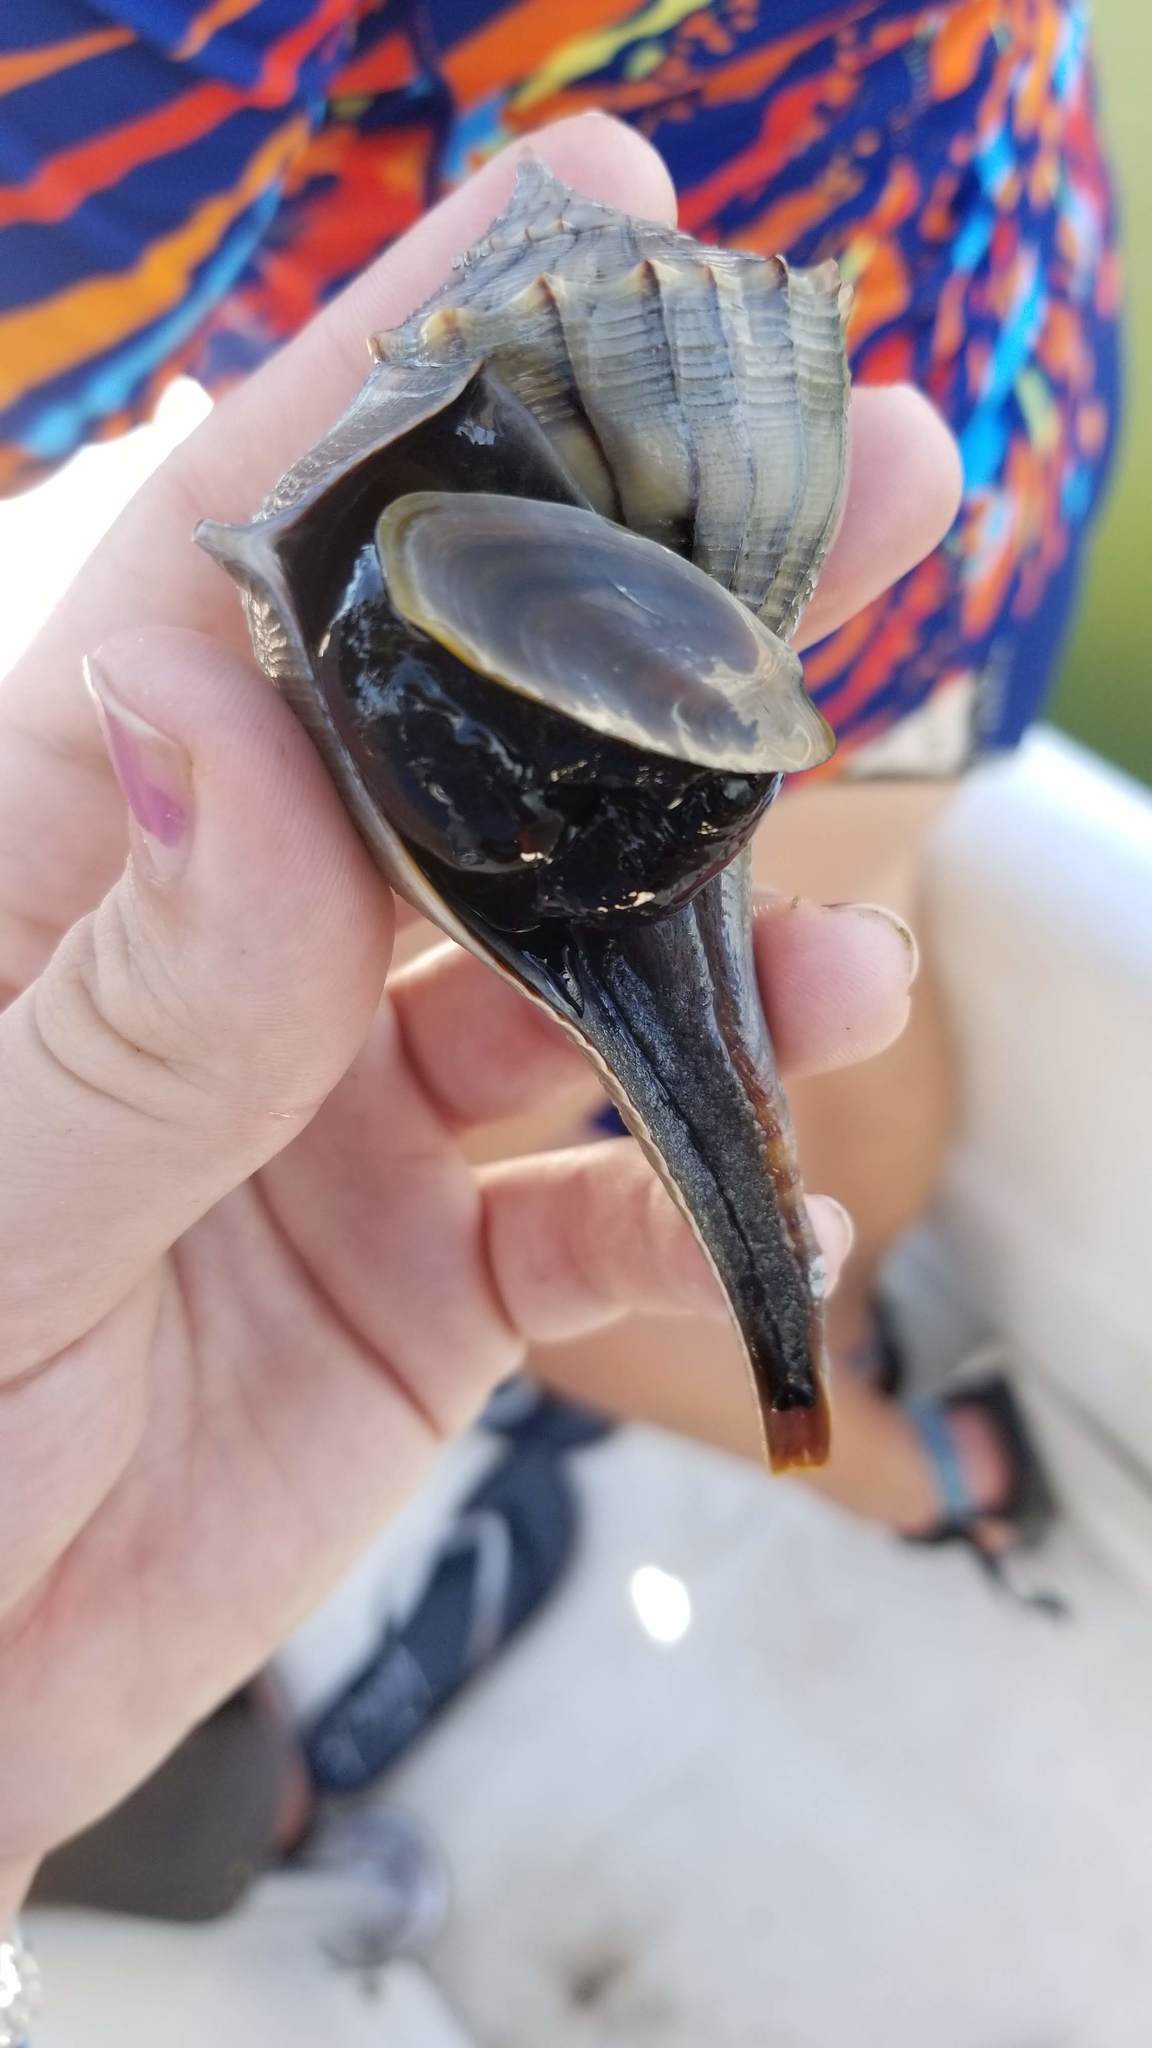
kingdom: Animalia
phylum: Mollusca
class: Gastropoda
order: Neogastropoda
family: Busyconidae
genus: Sinistrofulgur
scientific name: Sinistrofulgur sinistrum
